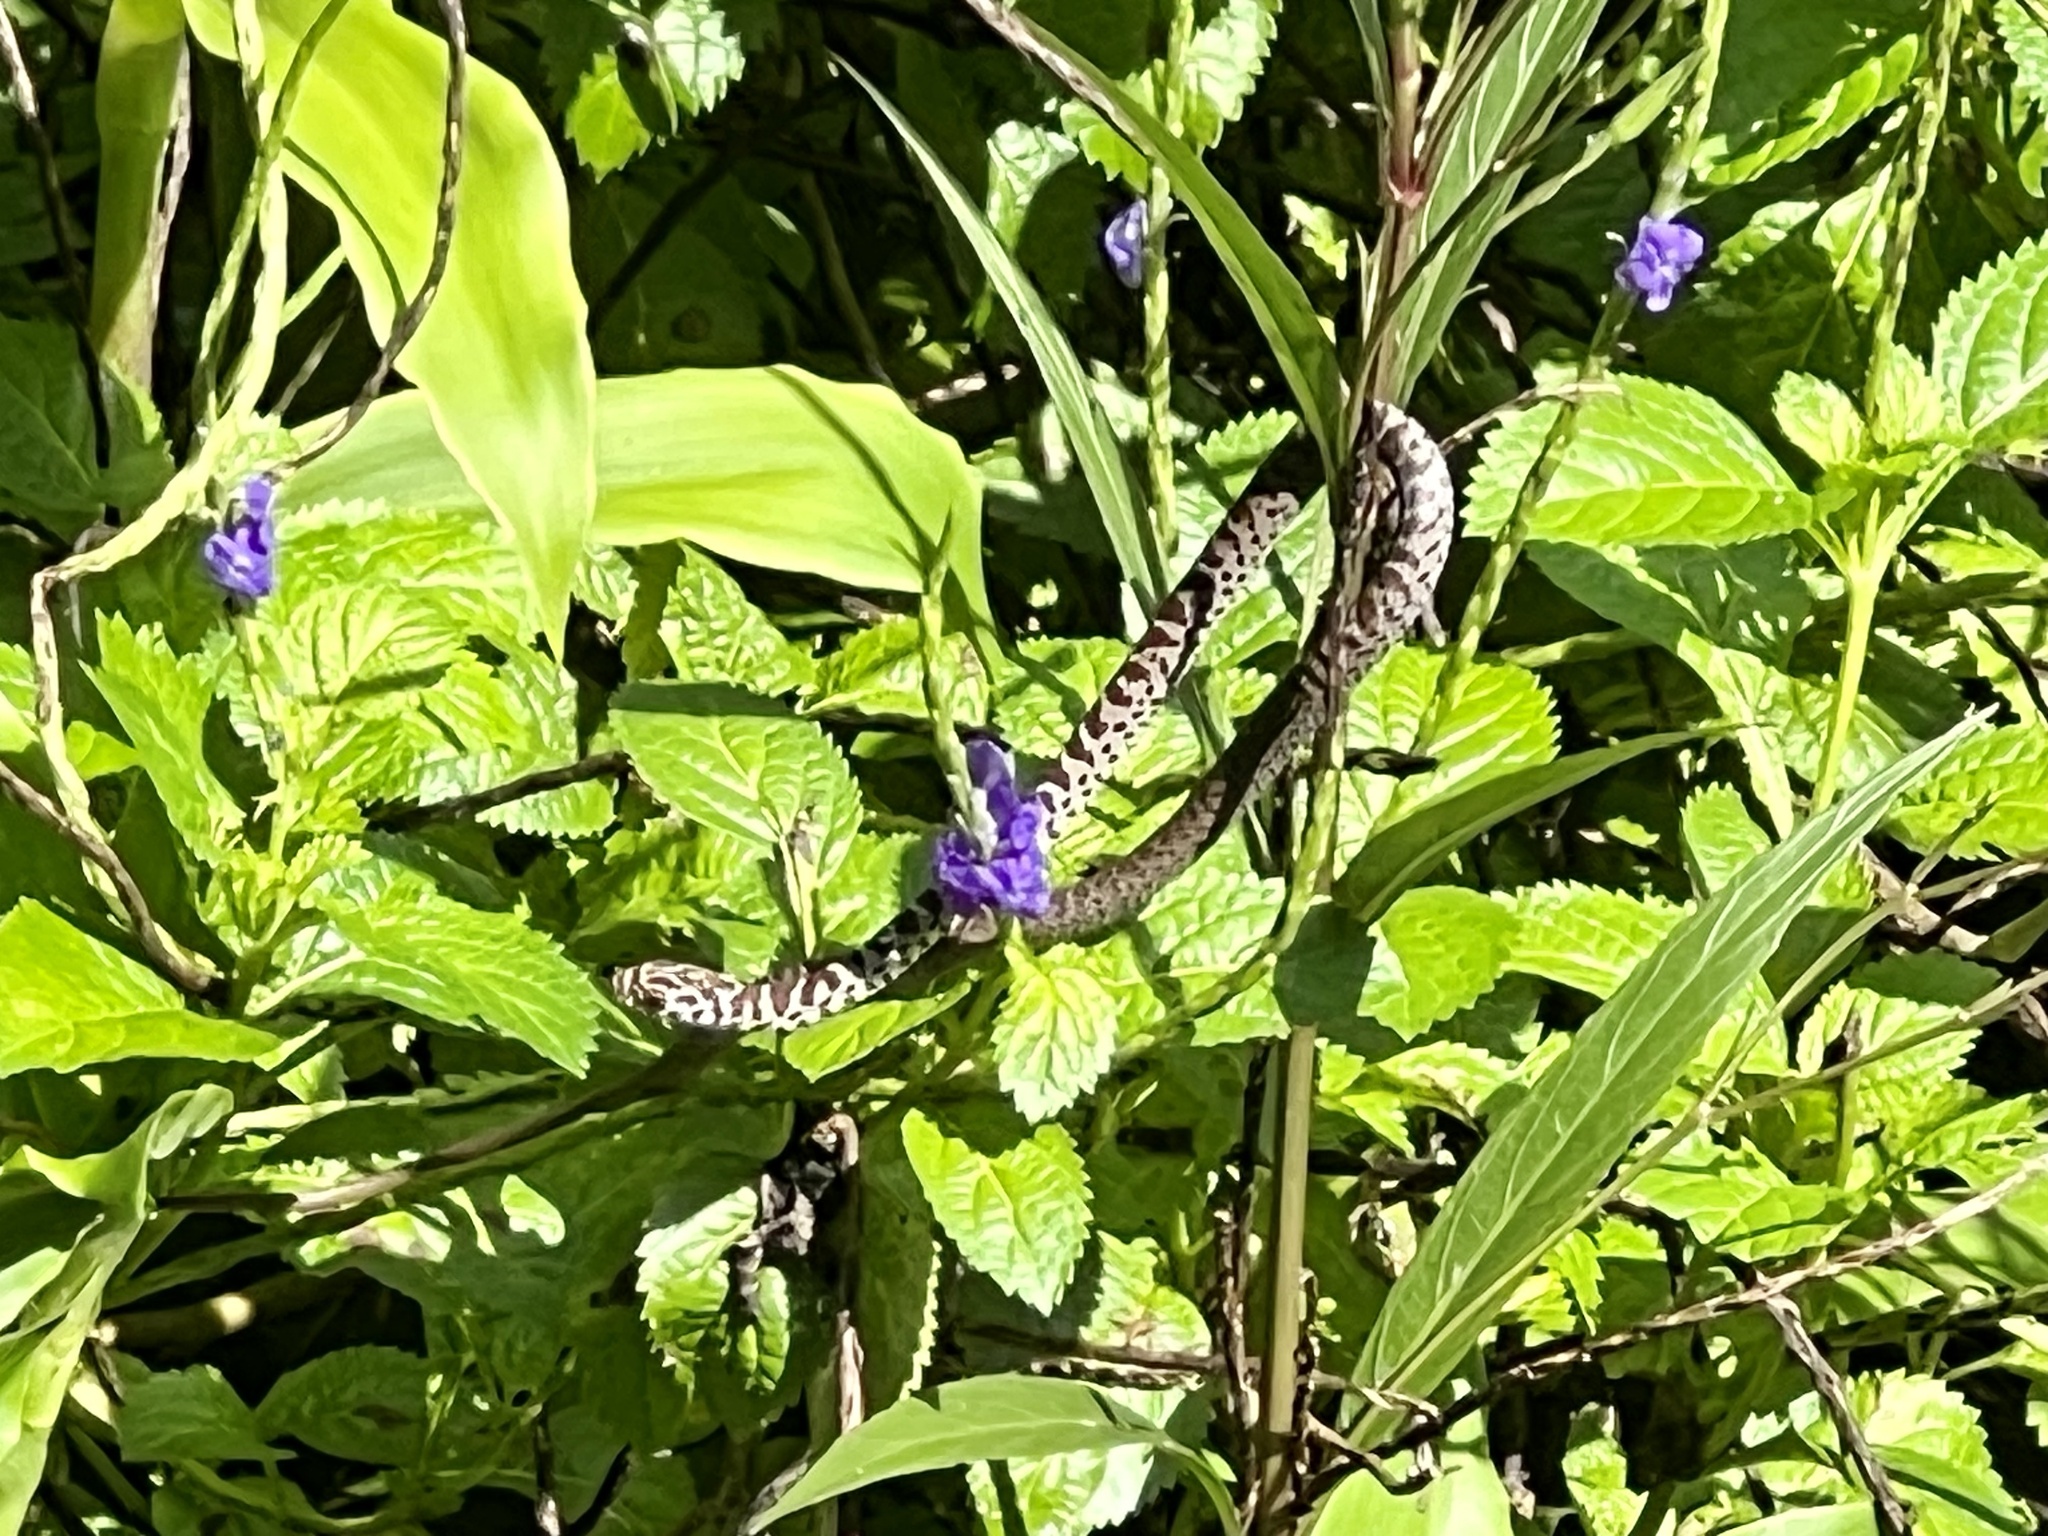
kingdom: Animalia
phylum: Chordata
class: Squamata
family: Colubridae
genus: Coluber
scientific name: Coluber constrictor
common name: Eastern racer
